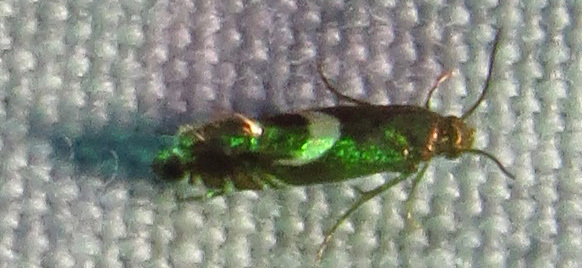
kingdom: Animalia
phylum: Arthropoda
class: Insecta
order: Lepidoptera
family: Glyphipterigidae
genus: Glyphipterix
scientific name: Glyphipterix Diploschizia impigritella
